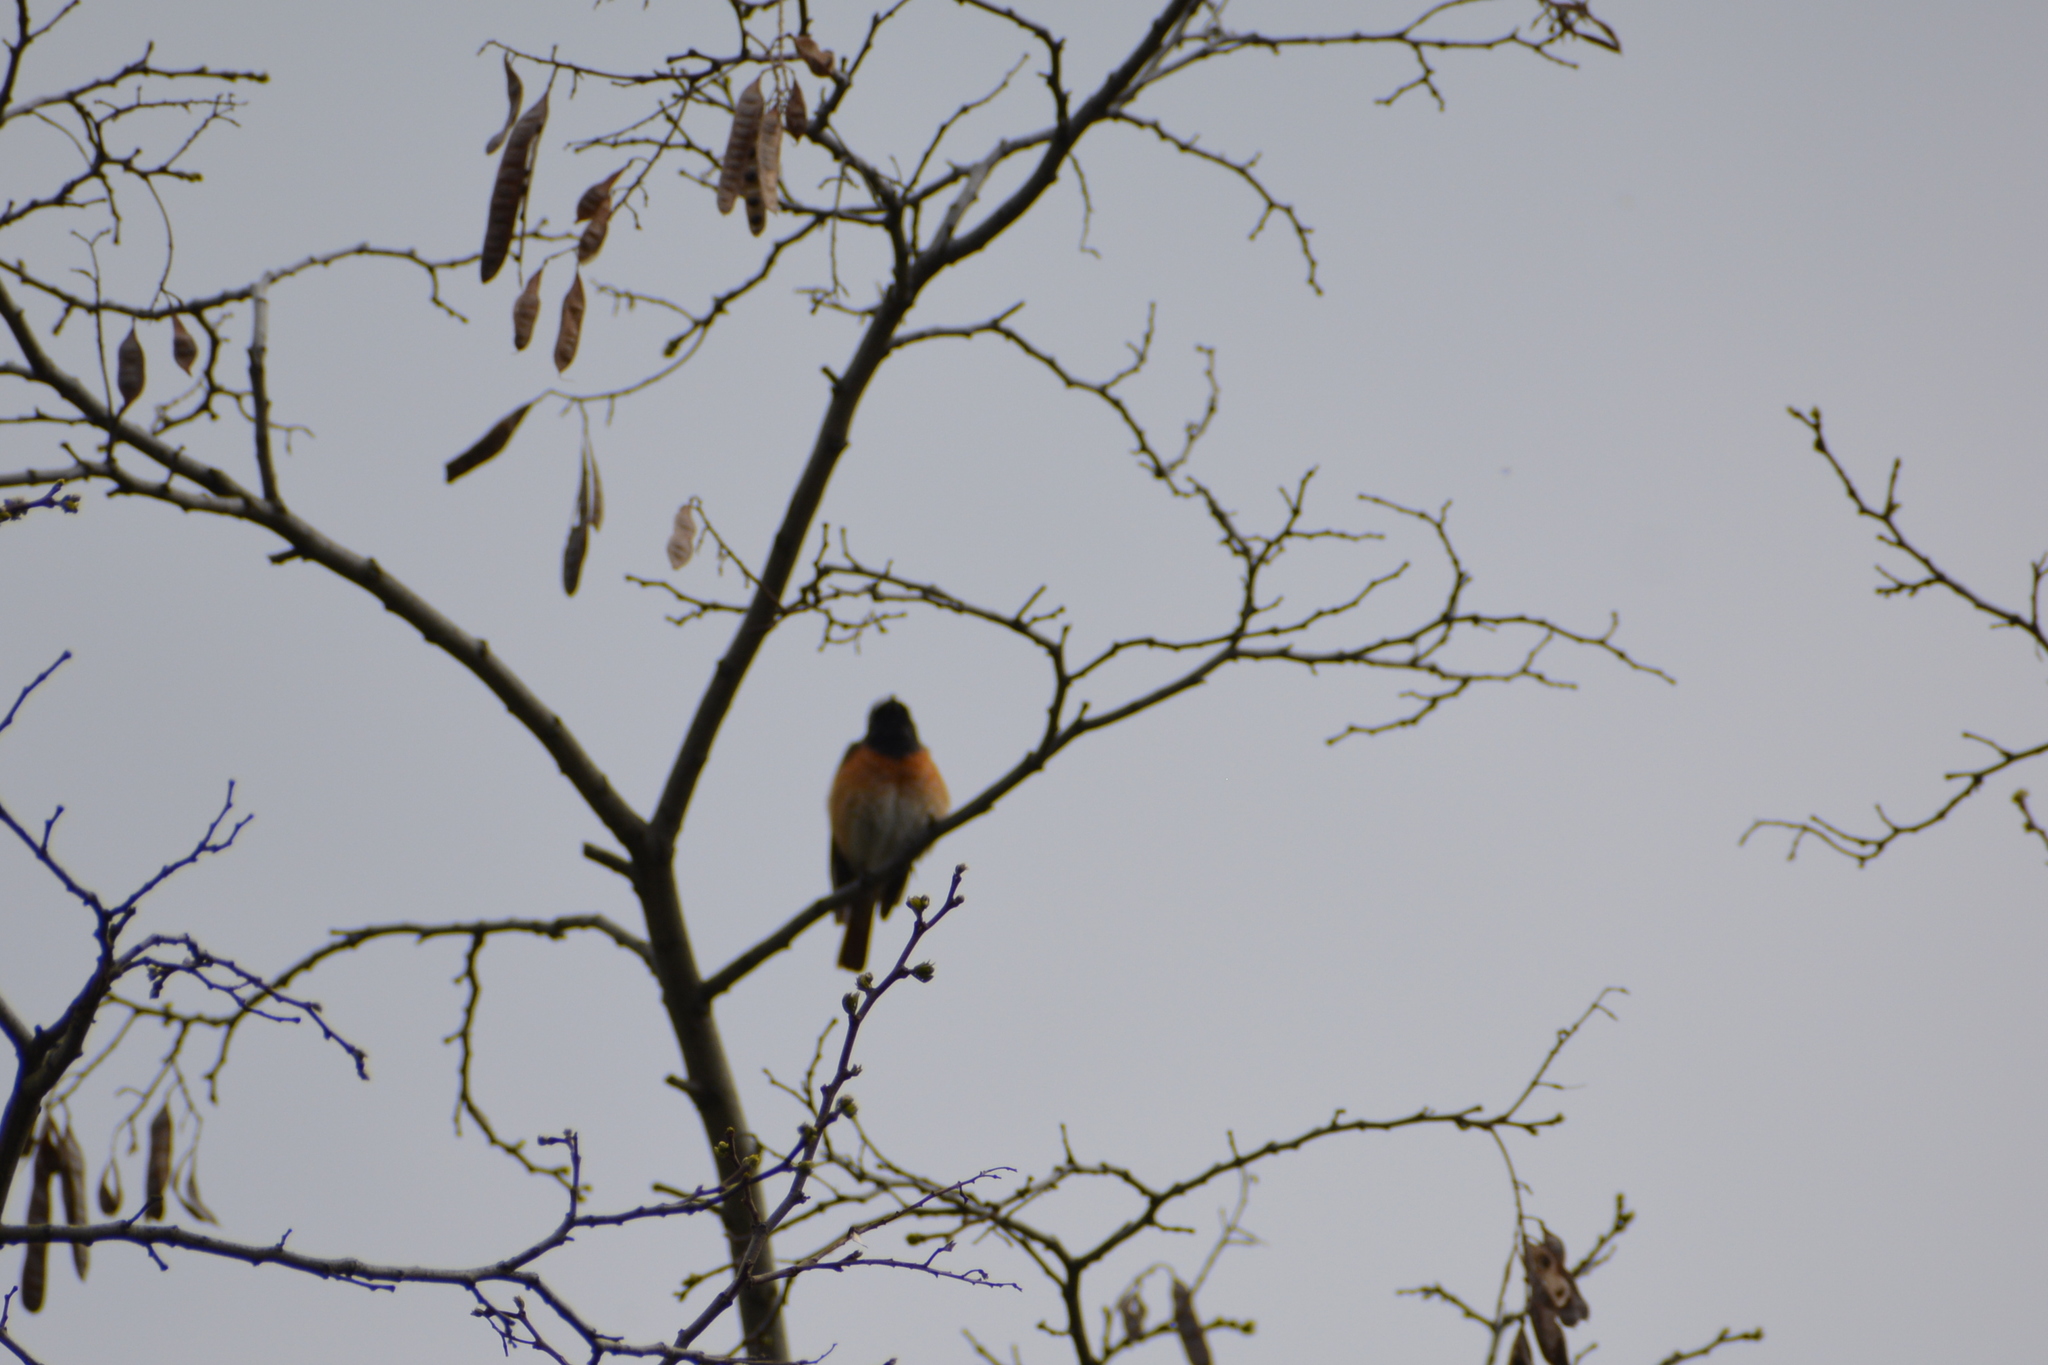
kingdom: Animalia
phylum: Chordata
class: Aves
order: Passeriformes
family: Muscicapidae
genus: Phoenicurus
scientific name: Phoenicurus phoenicurus
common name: Common redstart
